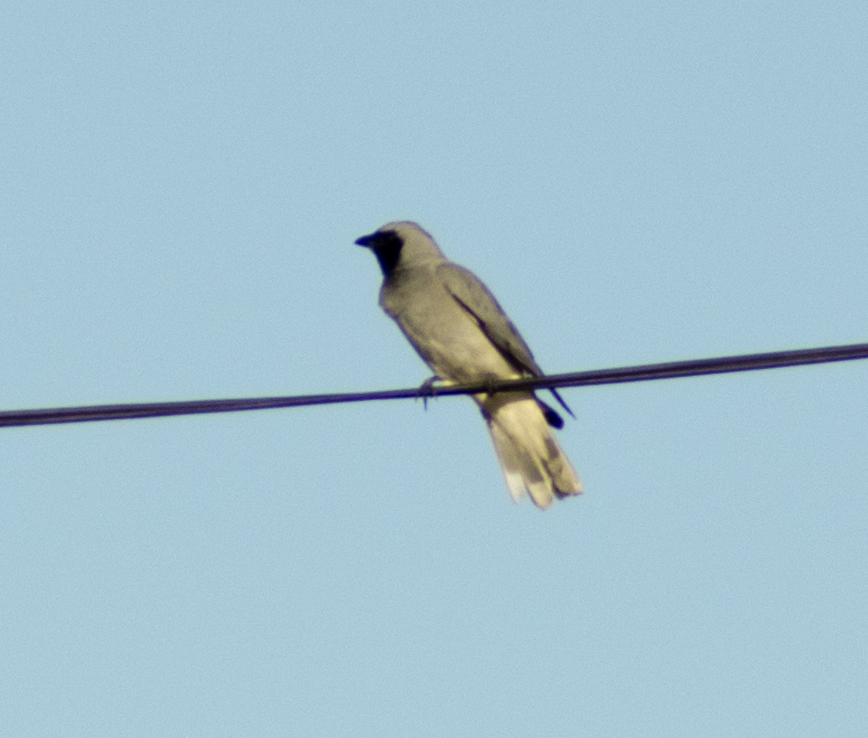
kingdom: Animalia
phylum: Chordata
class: Aves
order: Passeriformes
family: Campephagidae
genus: Coracina
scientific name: Coracina novaehollandiae
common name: Black-faced cuckooshrike
